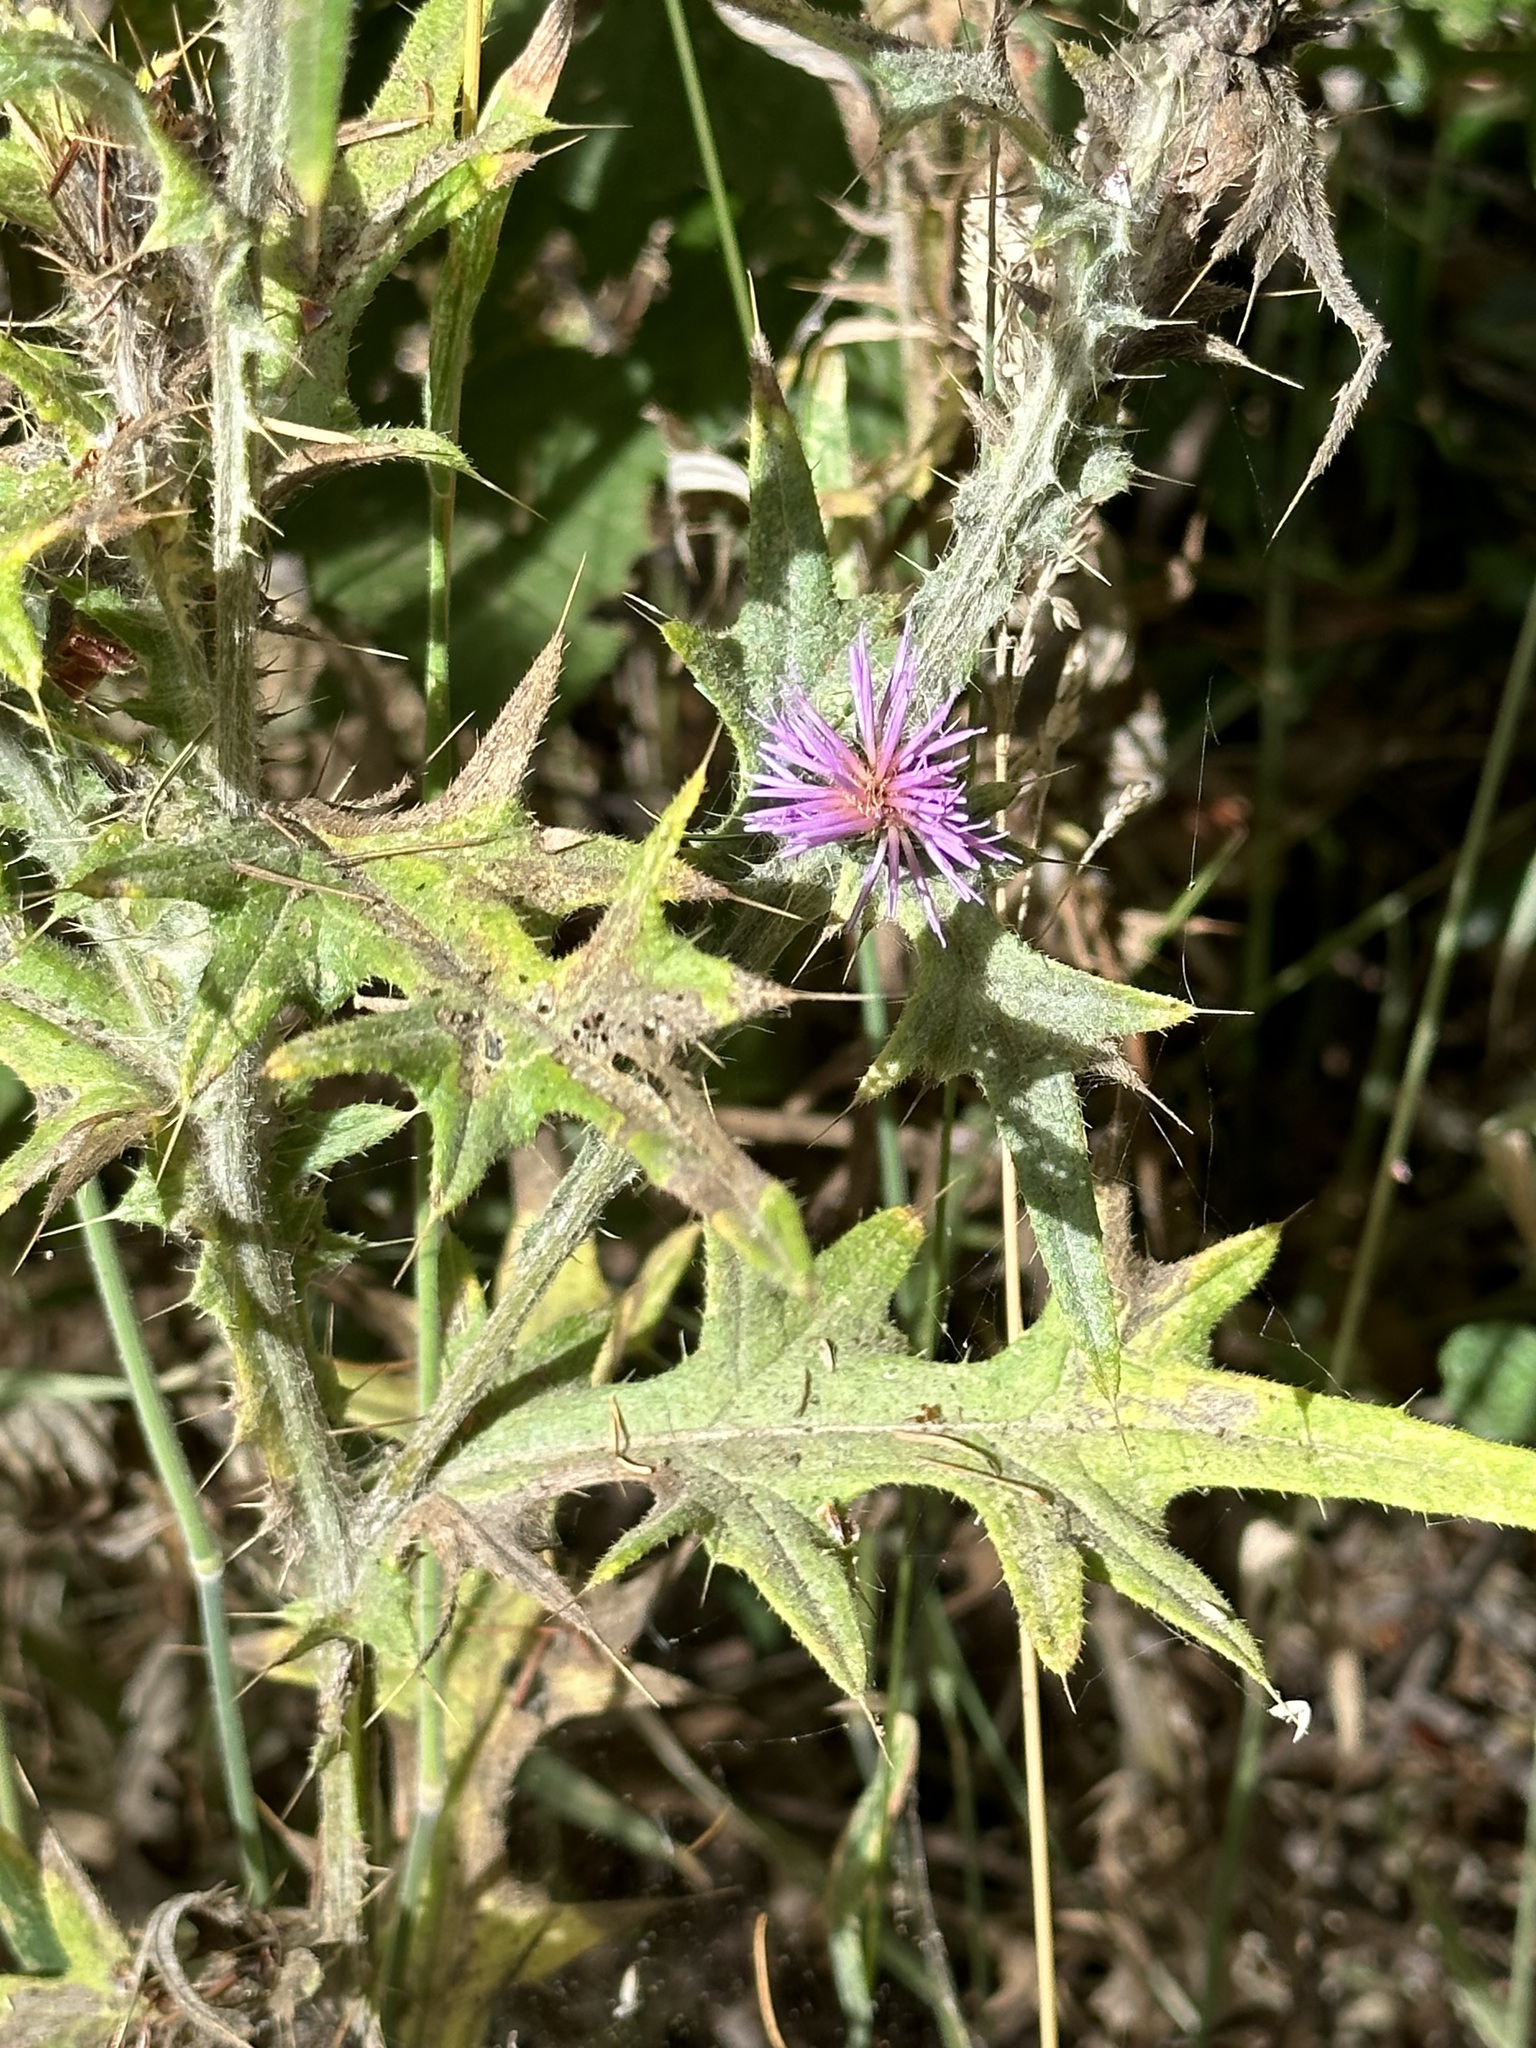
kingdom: Plantae
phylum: Tracheophyta
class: Magnoliopsida
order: Asterales
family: Asteraceae
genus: Cirsium
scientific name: Cirsium vulgare
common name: Bull thistle
